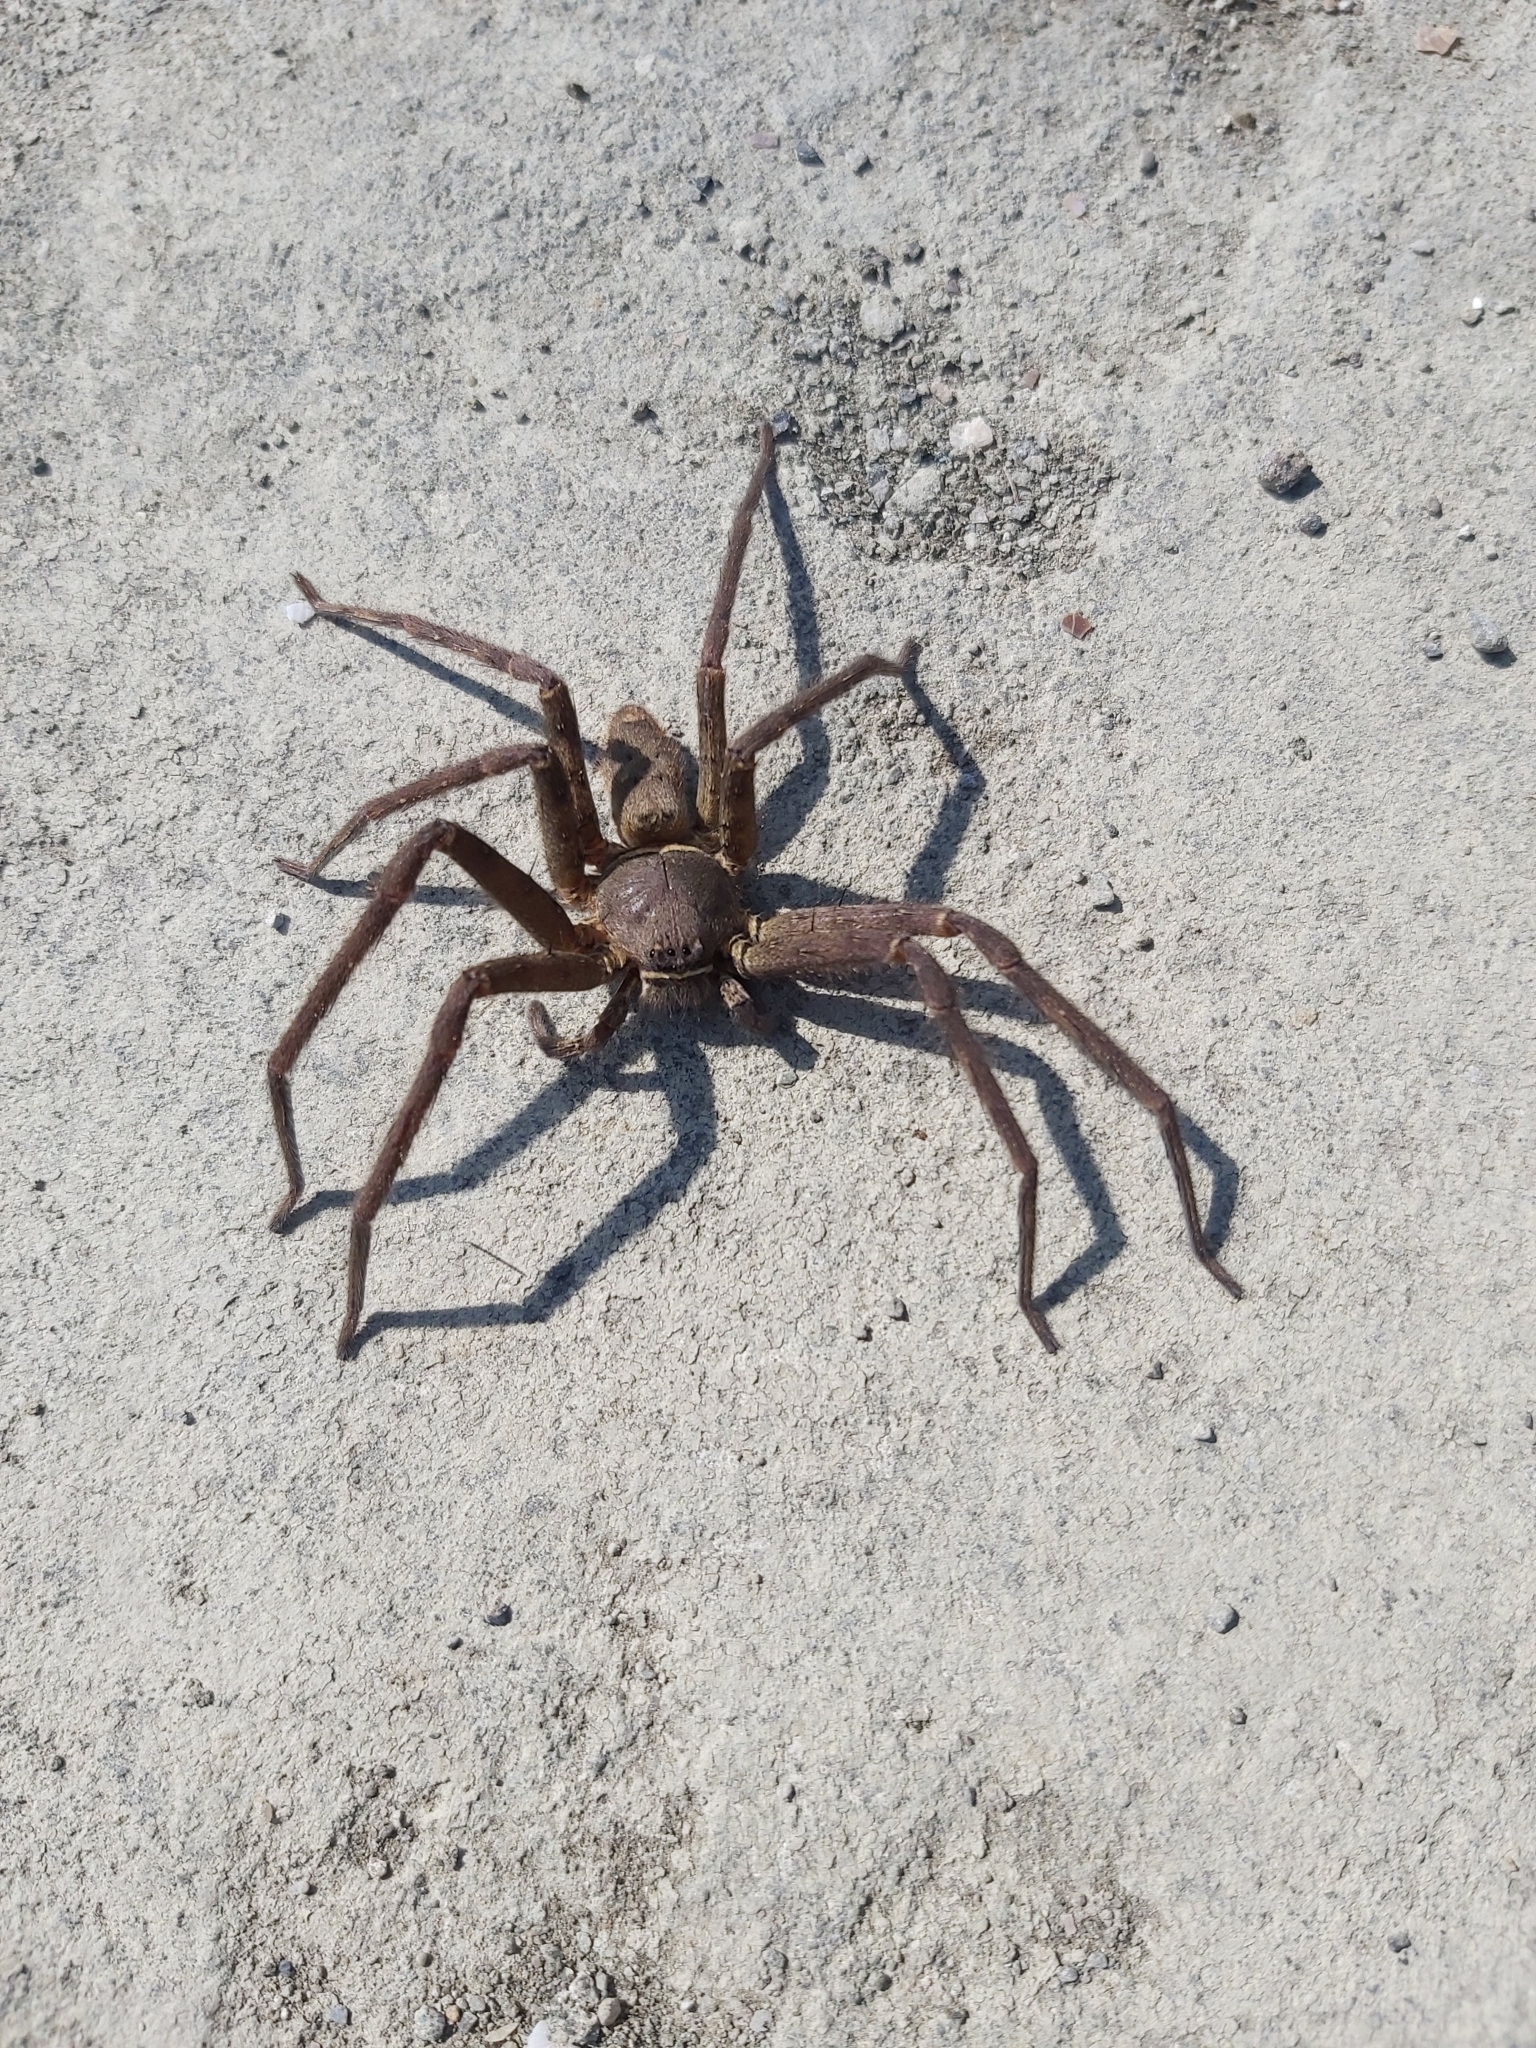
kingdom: Animalia
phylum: Arthropoda
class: Arachnida
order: Araneae
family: Sparassidae
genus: Heteropoda
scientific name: Heteropoda venatoria
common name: Huntsman spider
